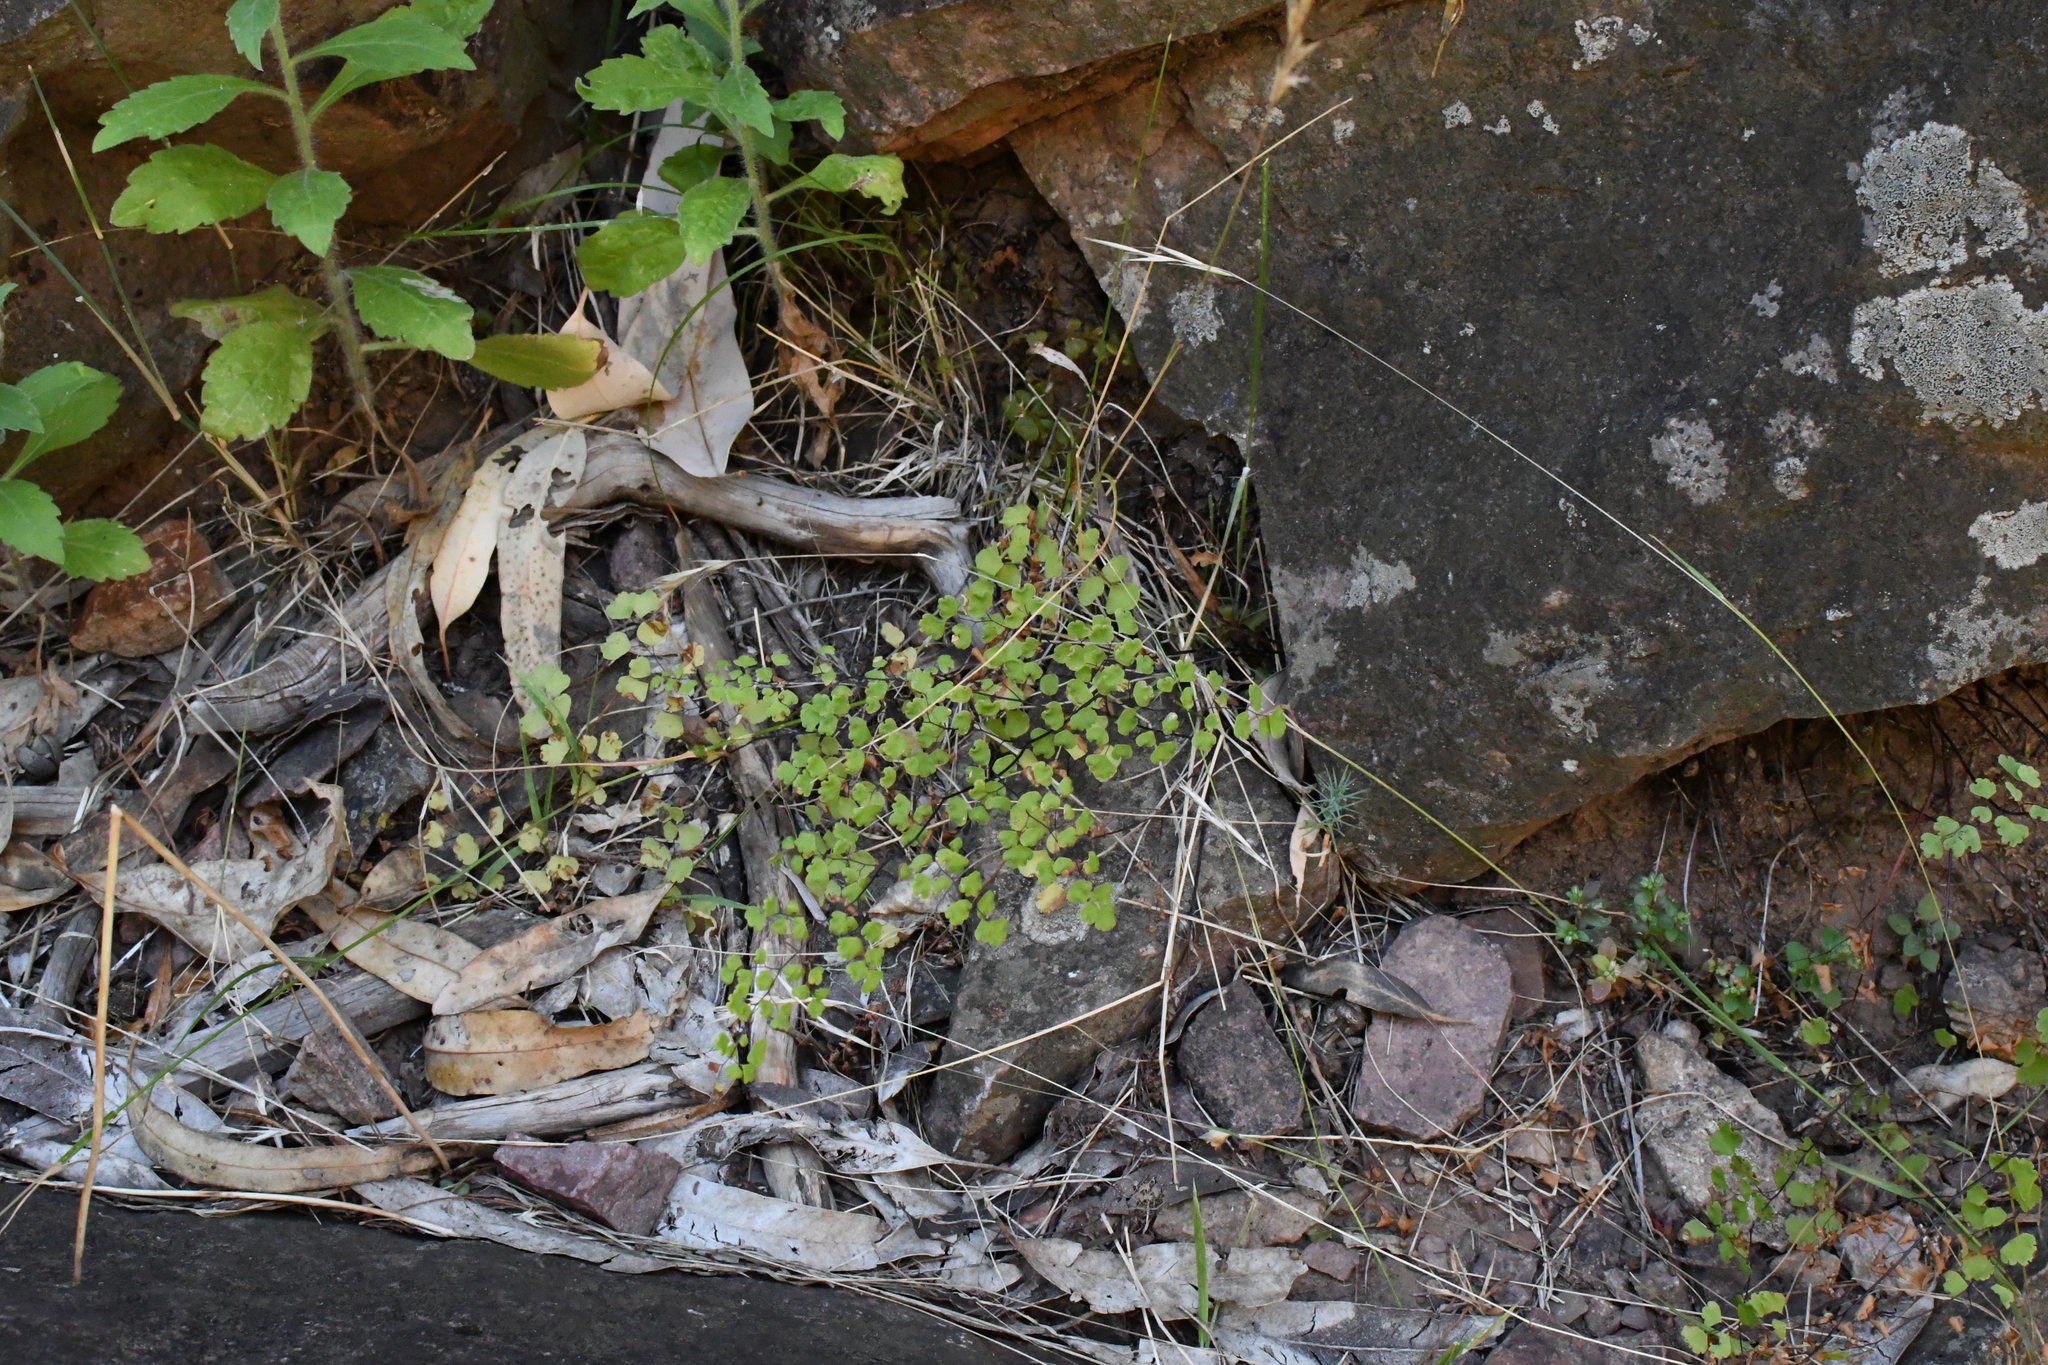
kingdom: Plantae
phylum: Tracheophyta
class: Polypodiopsida
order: Polypodiales
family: Pteridaceae
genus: Adiantum
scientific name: Adiantum aethiopicum
